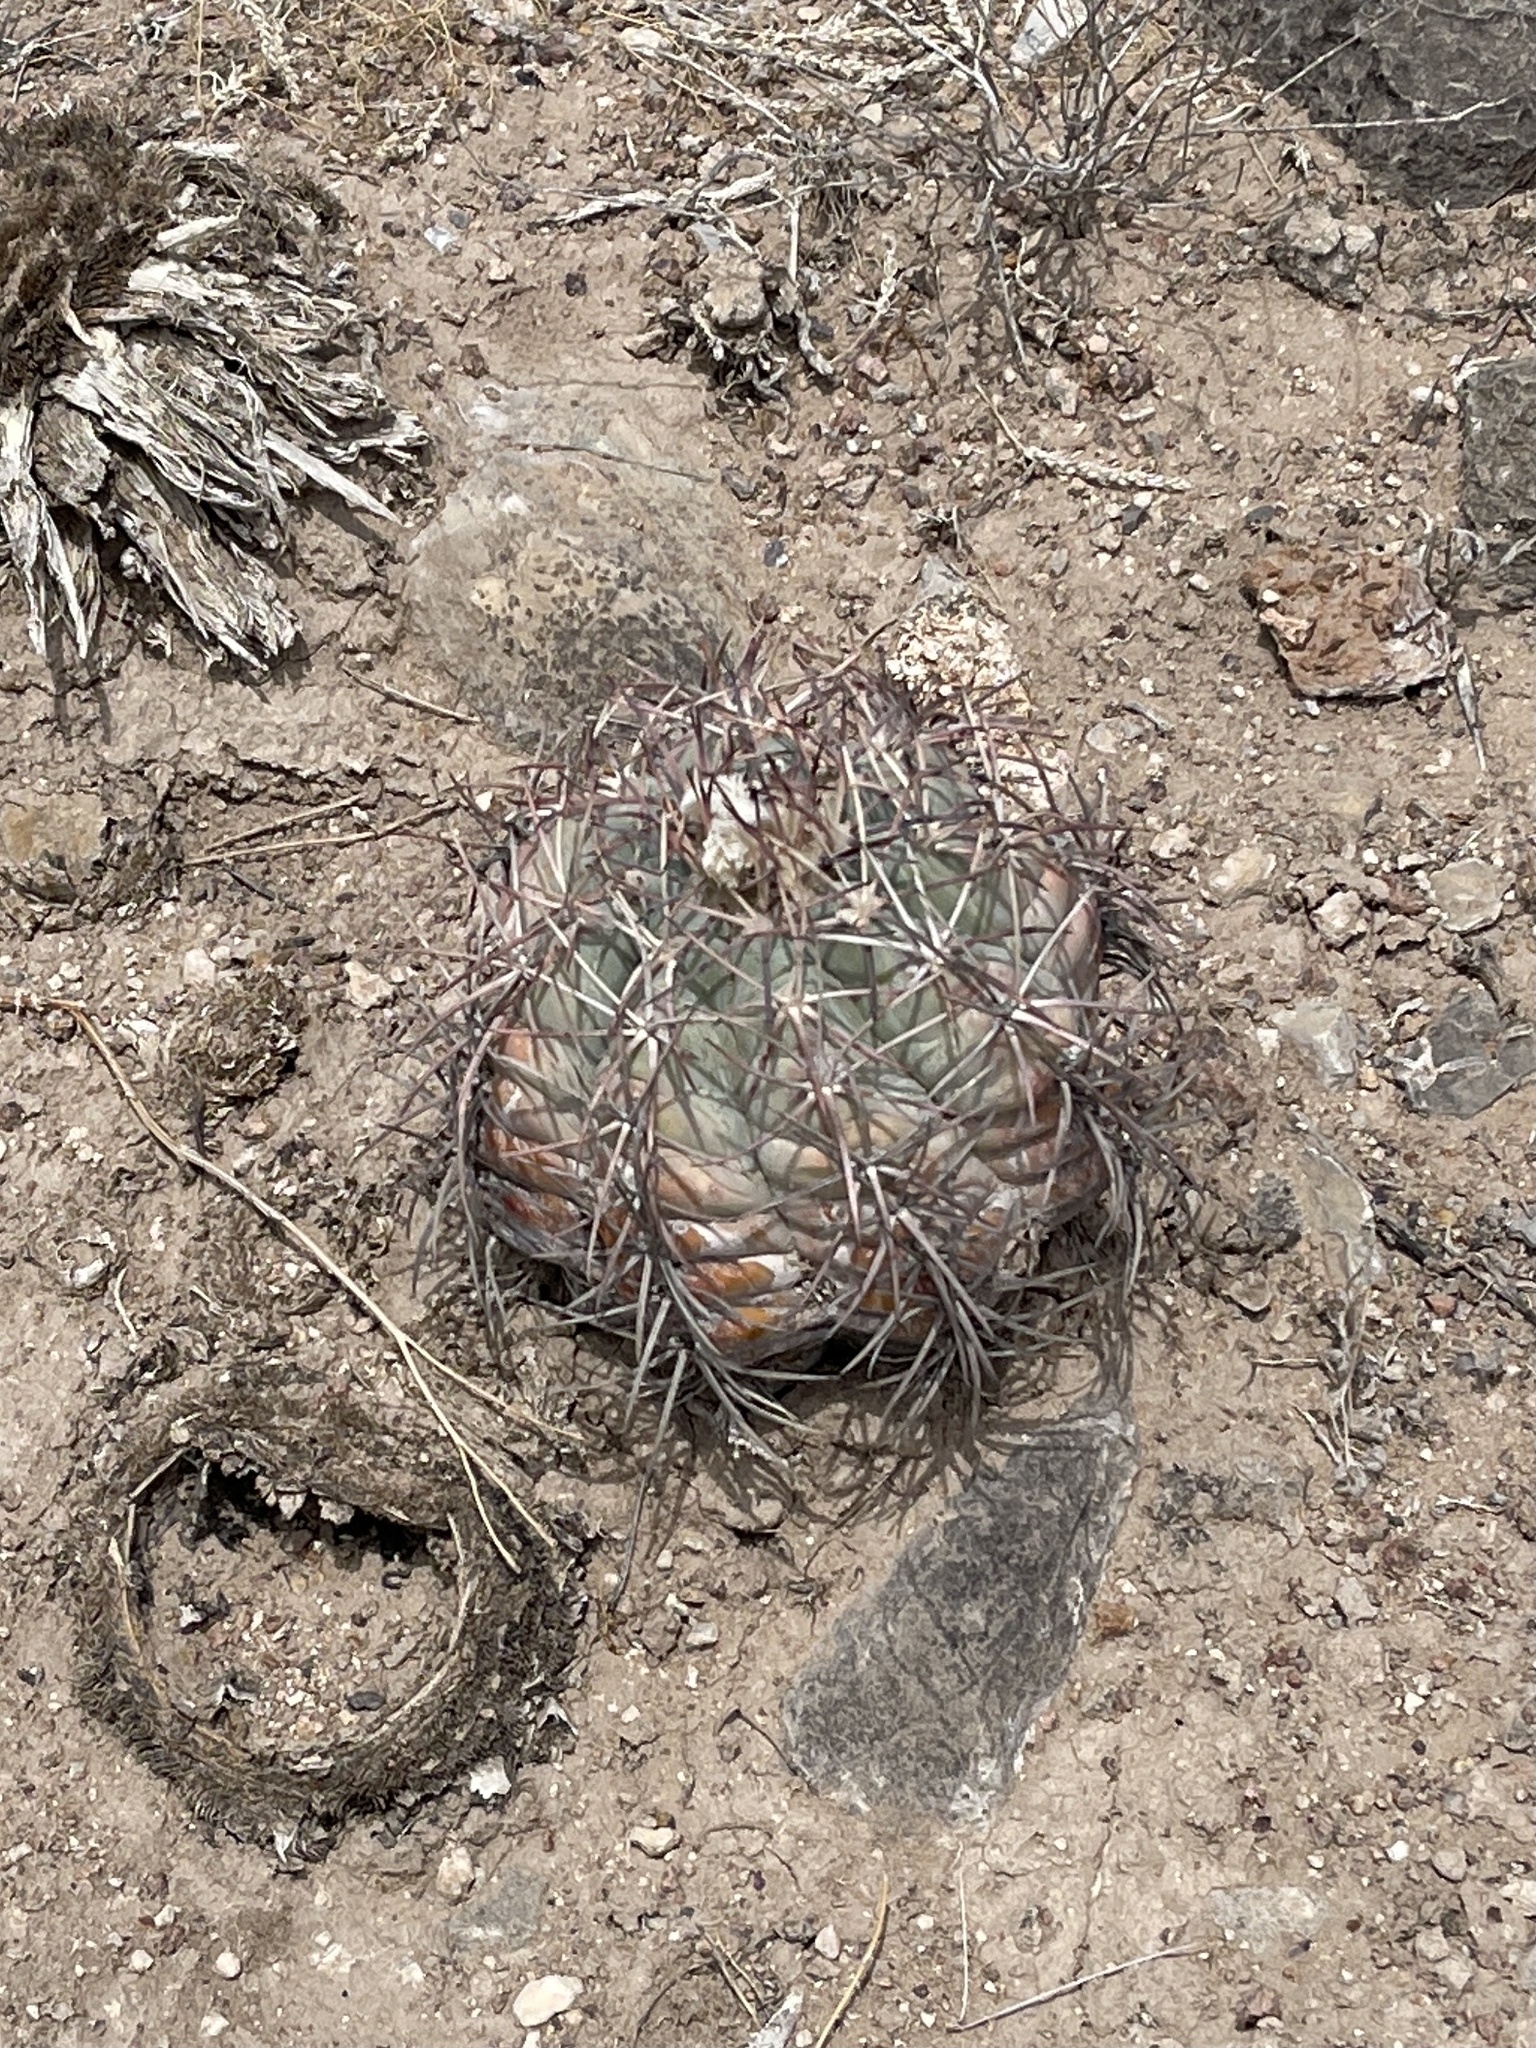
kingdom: Plantae
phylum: Tracheophyta
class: Magnoliopsida
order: Caryophyllales
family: Cactaceae
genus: Echinocactus
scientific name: Echinocactus horizonthalonius
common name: Devilshead
